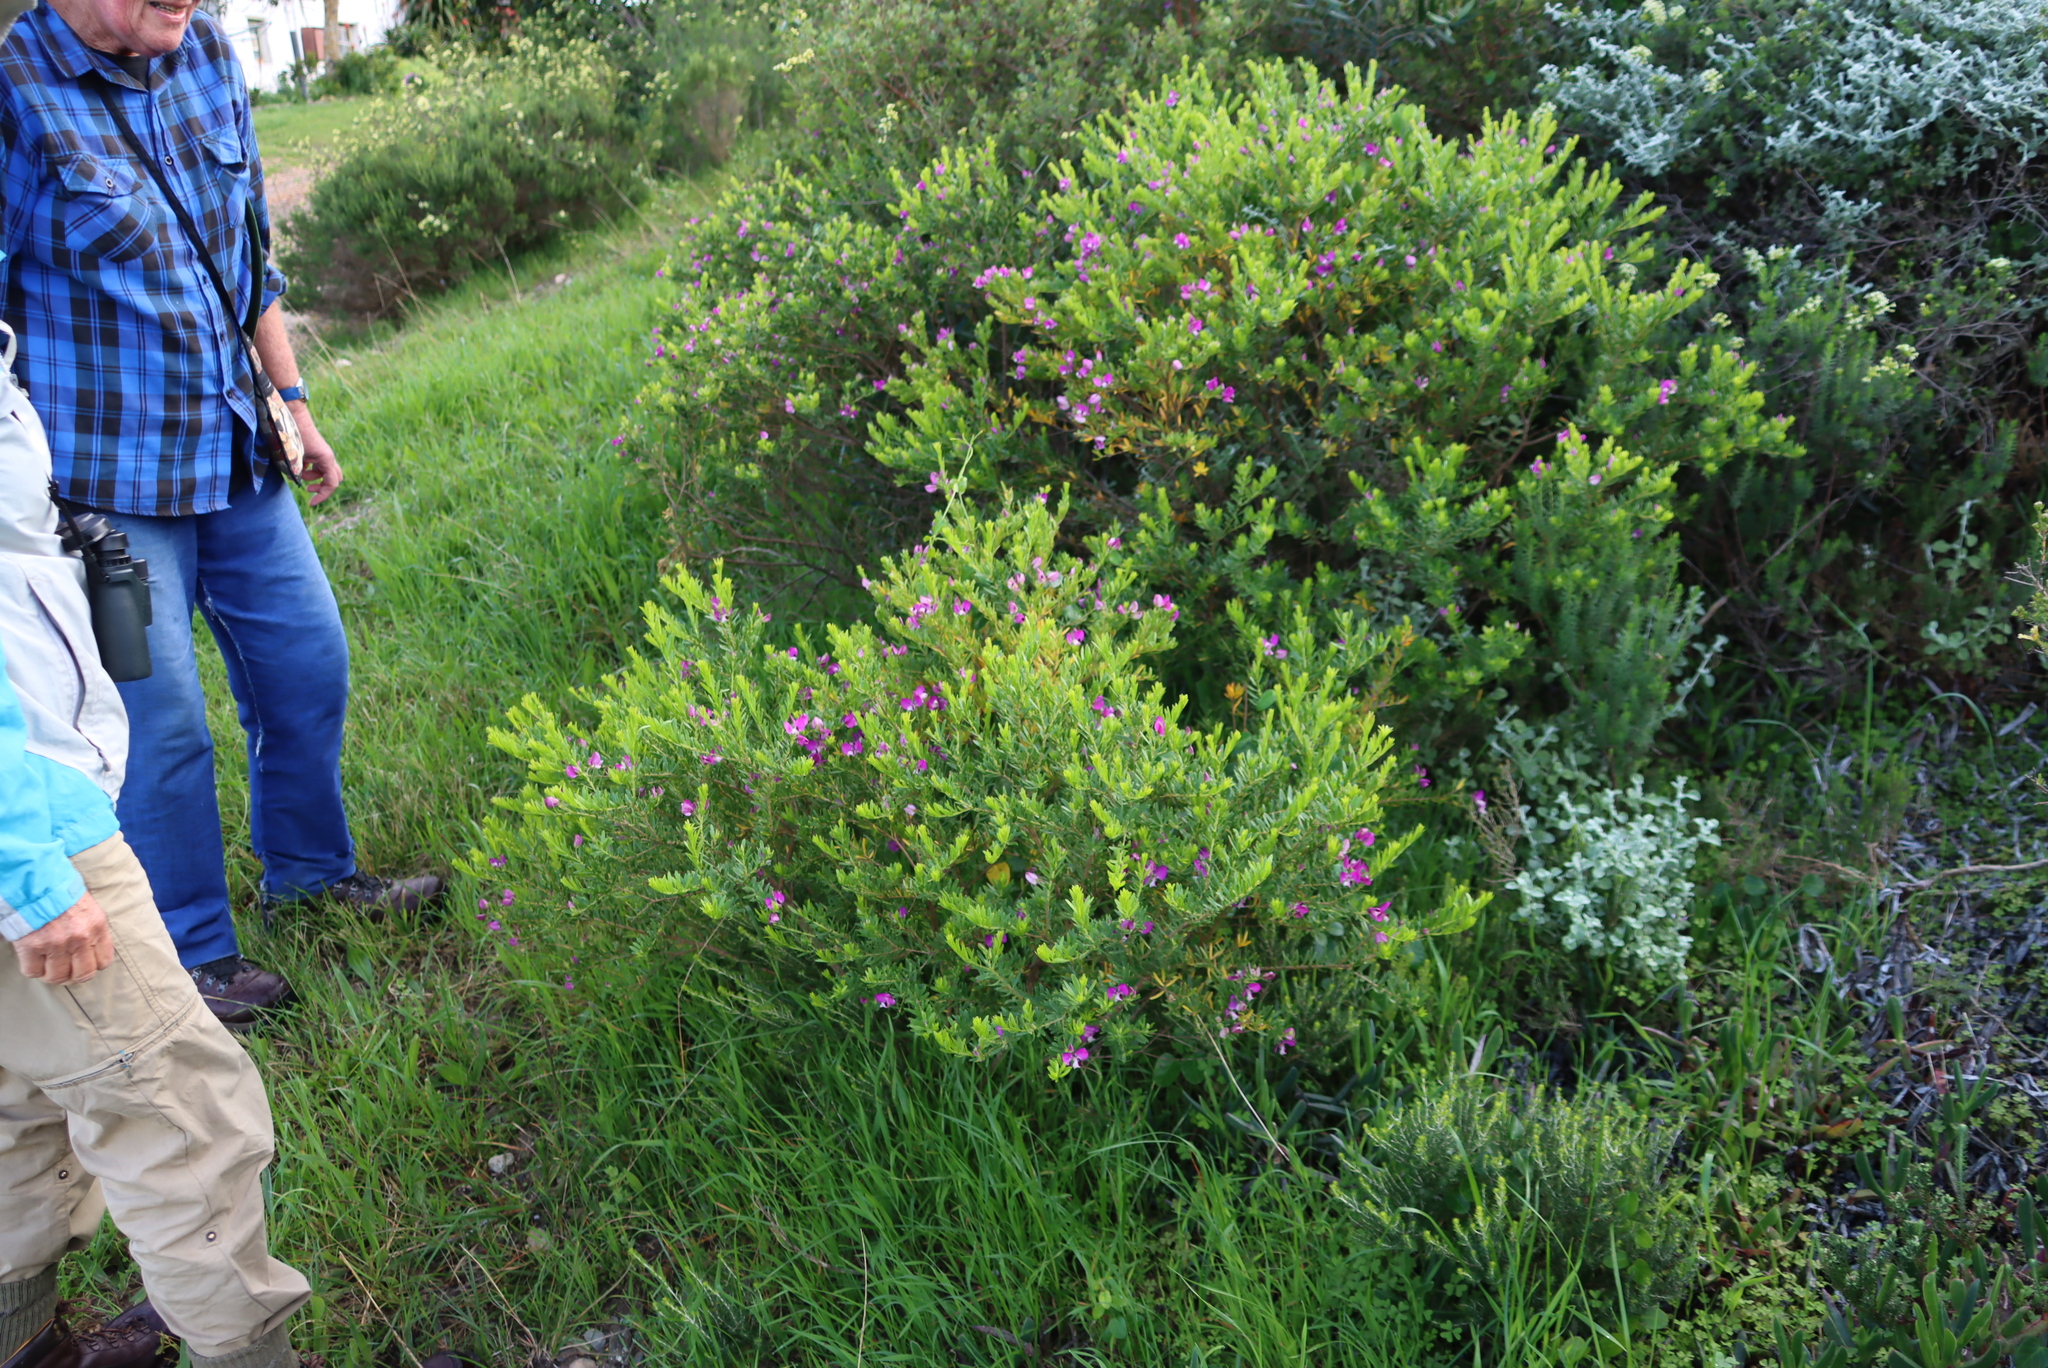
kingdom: Plantae
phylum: Tracheophyta
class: Magnoliopsida
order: Fabales
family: Polygalaceae
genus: Polygala
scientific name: Polygala myrtifolia
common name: Myrtle-leaf milkwort
